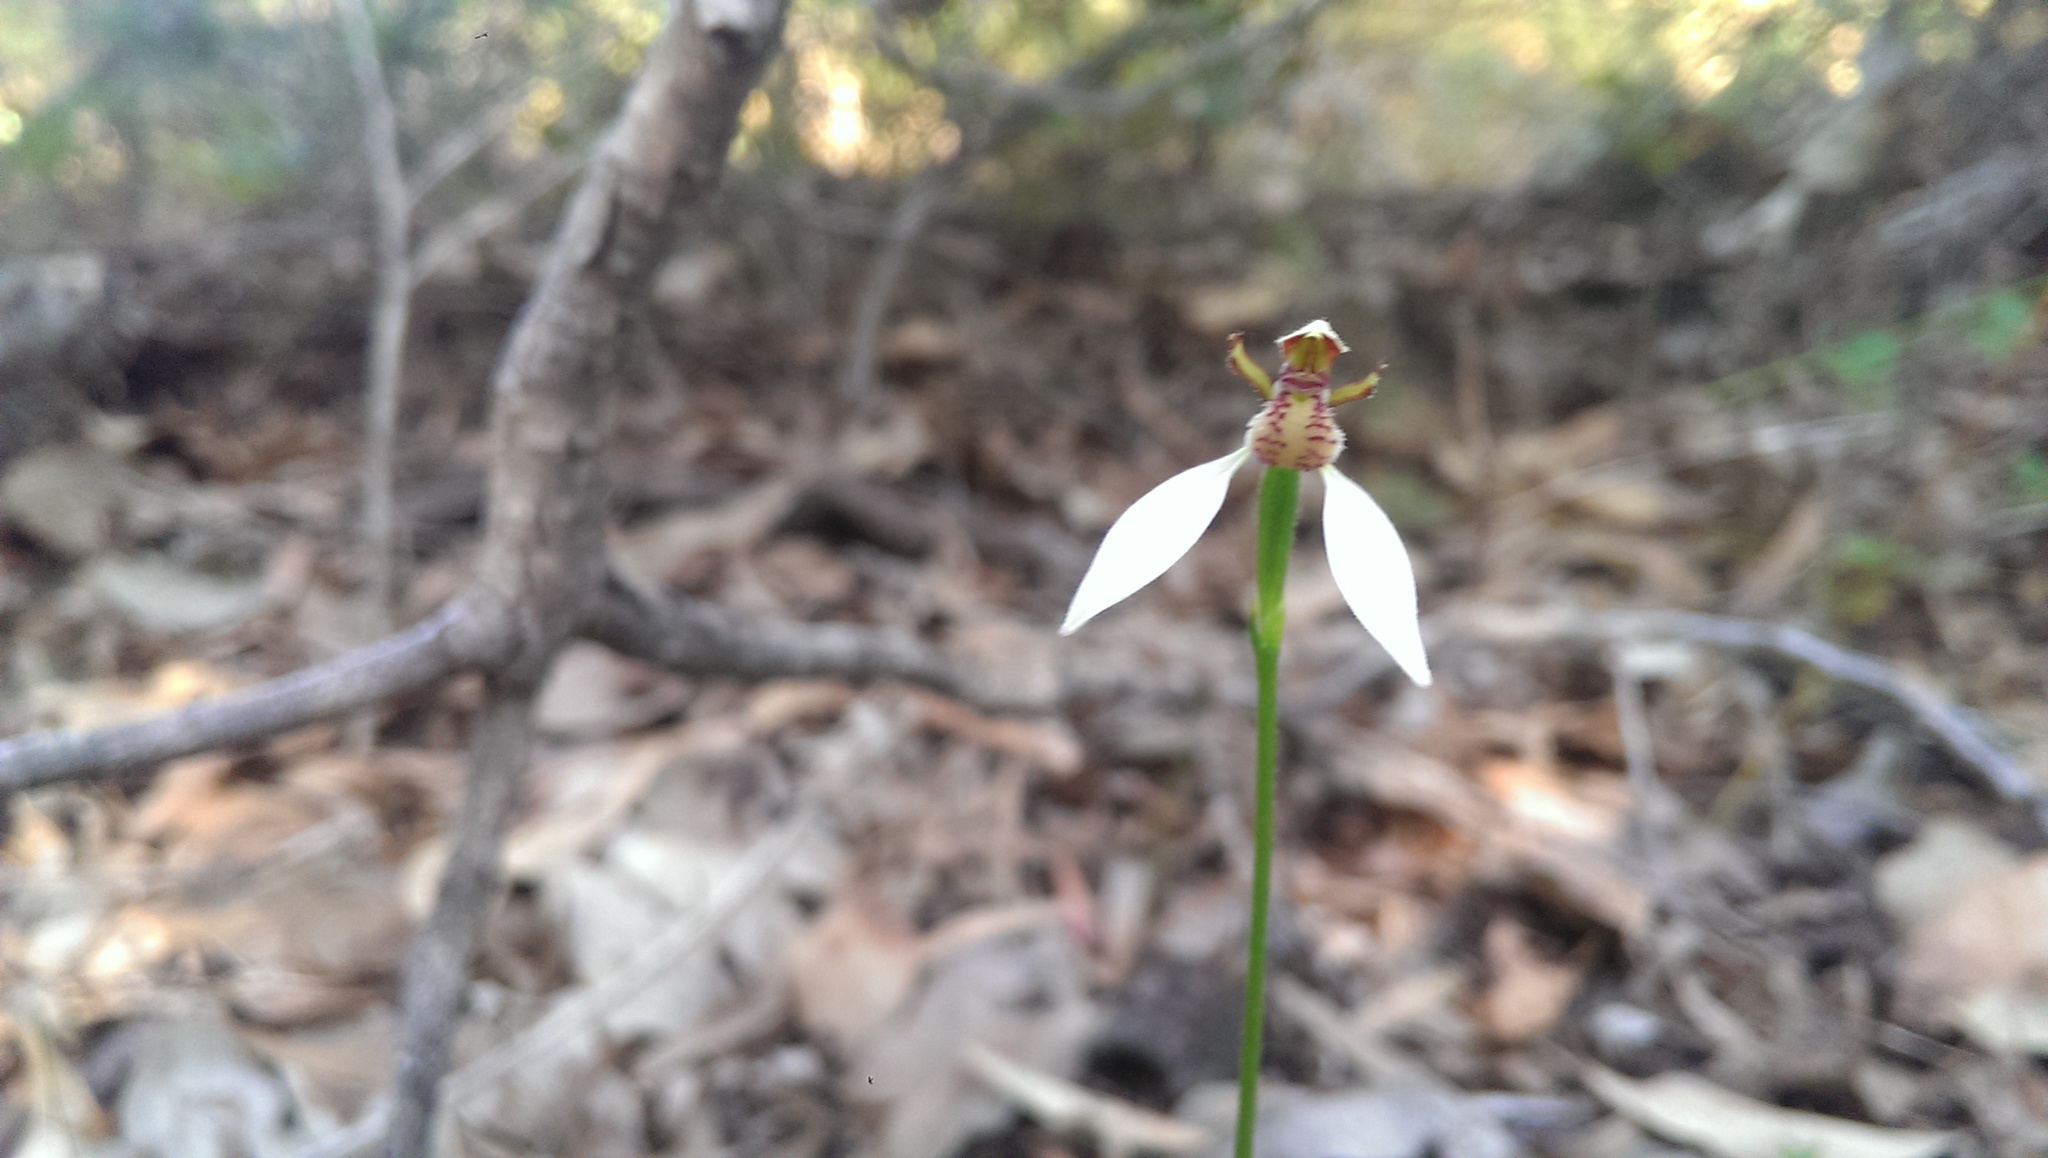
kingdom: Plantae
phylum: Tracheophyta
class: Liliopsida
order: Asparagales
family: Orchidaceae
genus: Eriochilus
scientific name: Eriochilus dilatatus
